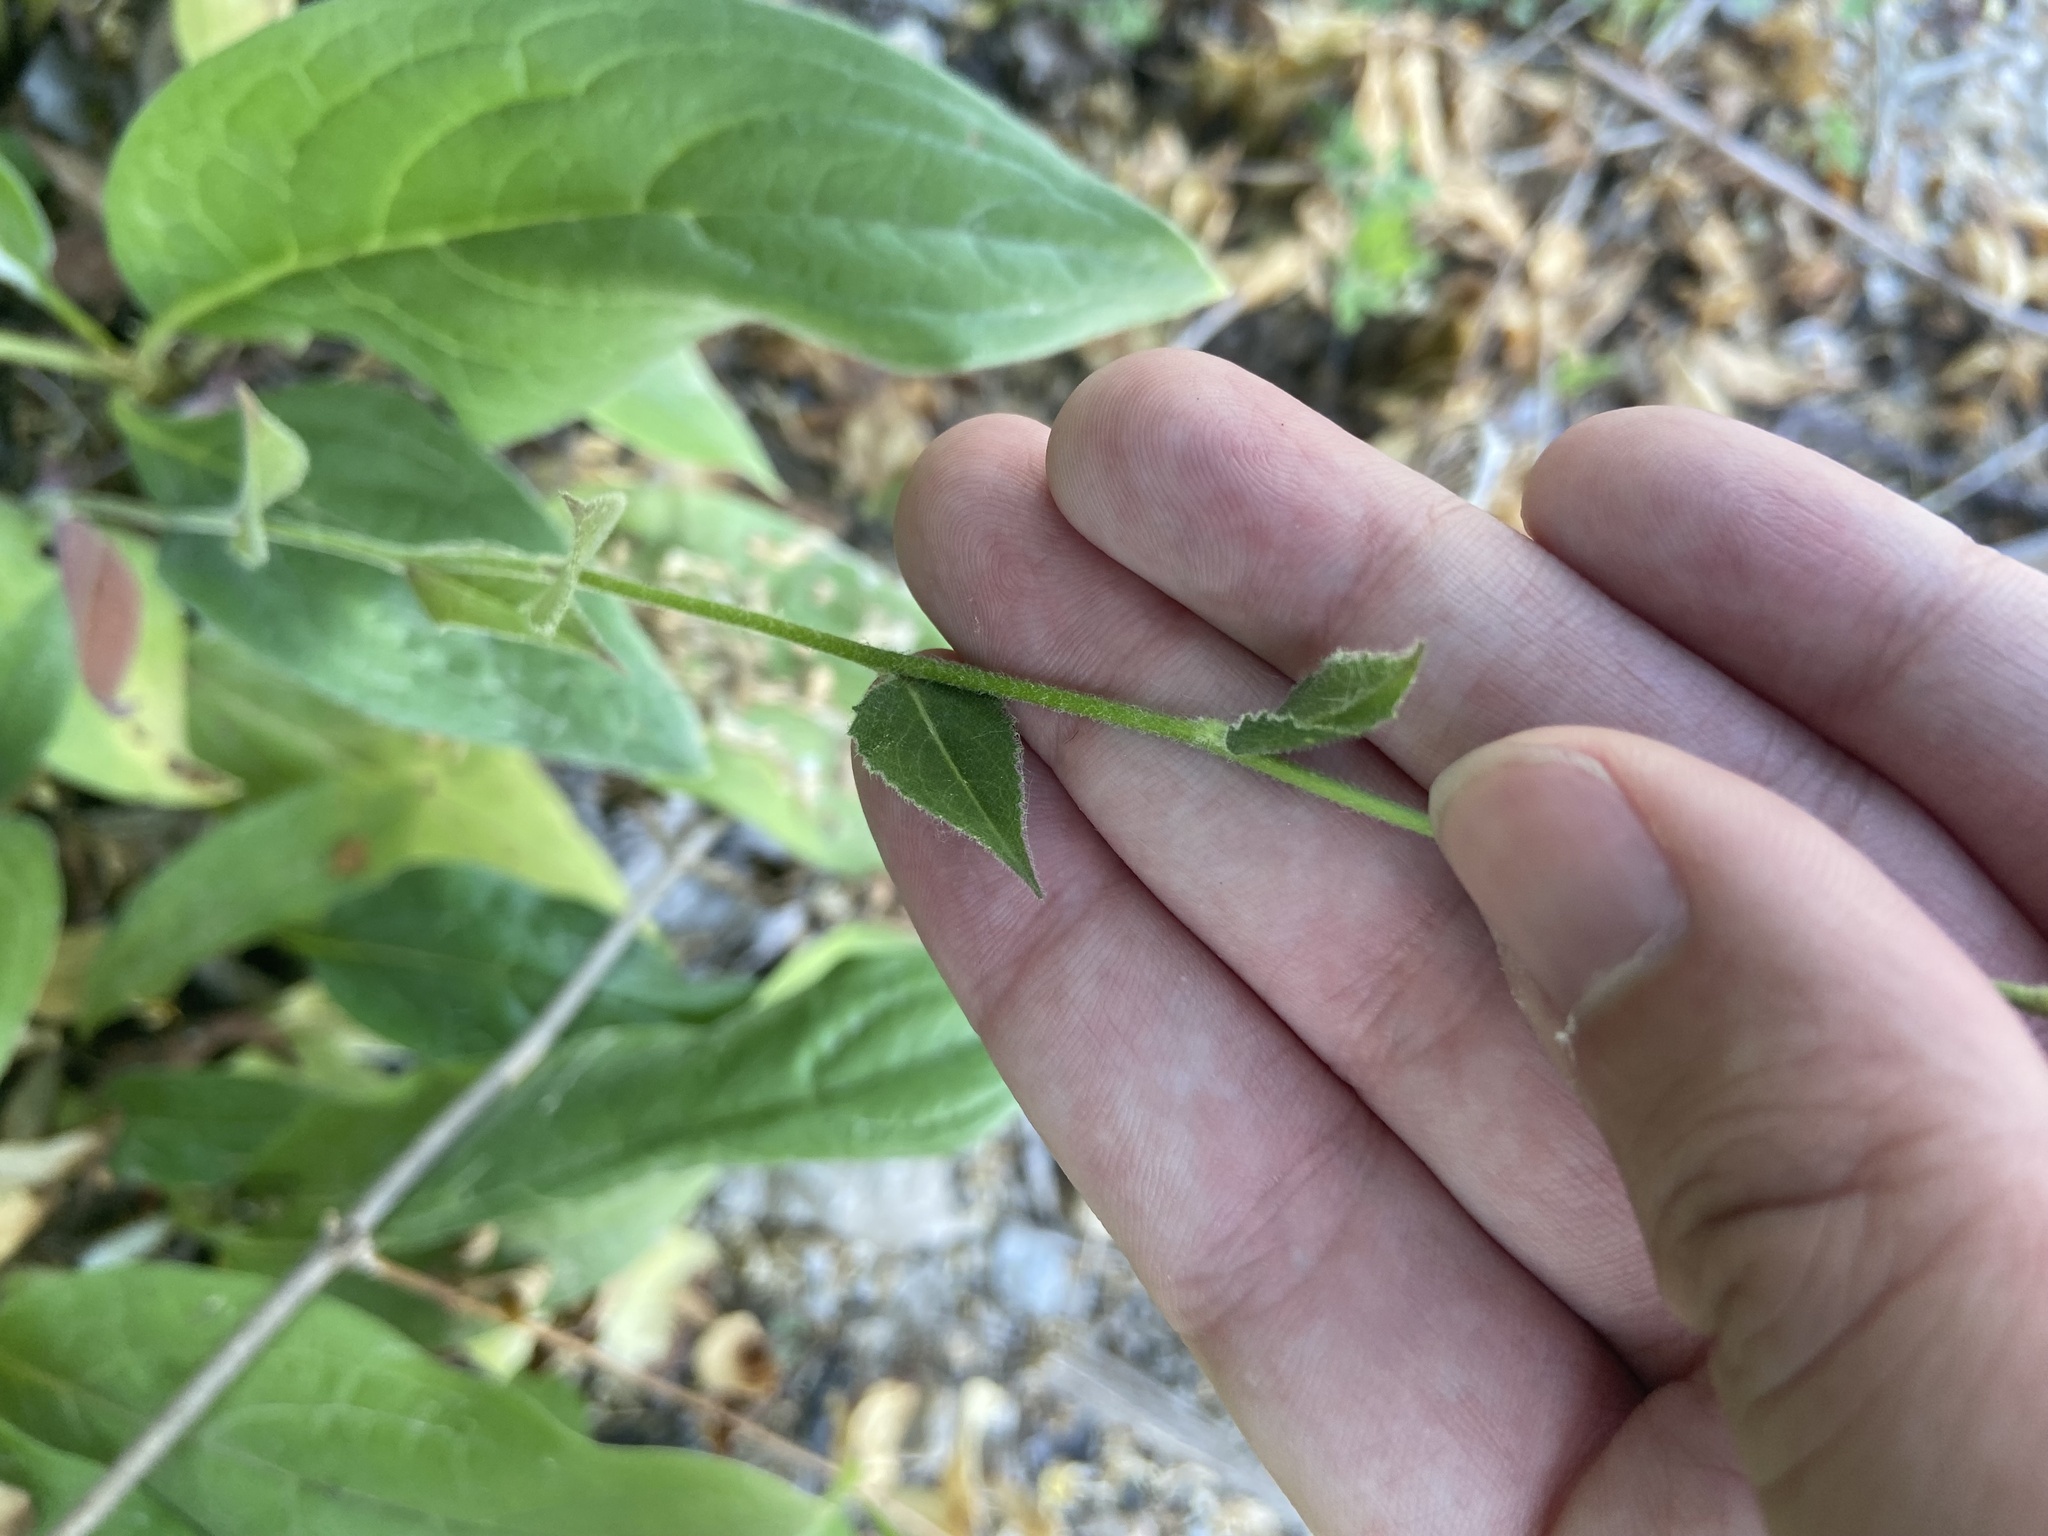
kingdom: Plantae
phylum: Tracheophyta
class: Magnoliopsida
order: Brassicales
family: Brassicaceae
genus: Hesperis
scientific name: Hesperis matronalis
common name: Dame's-violet
